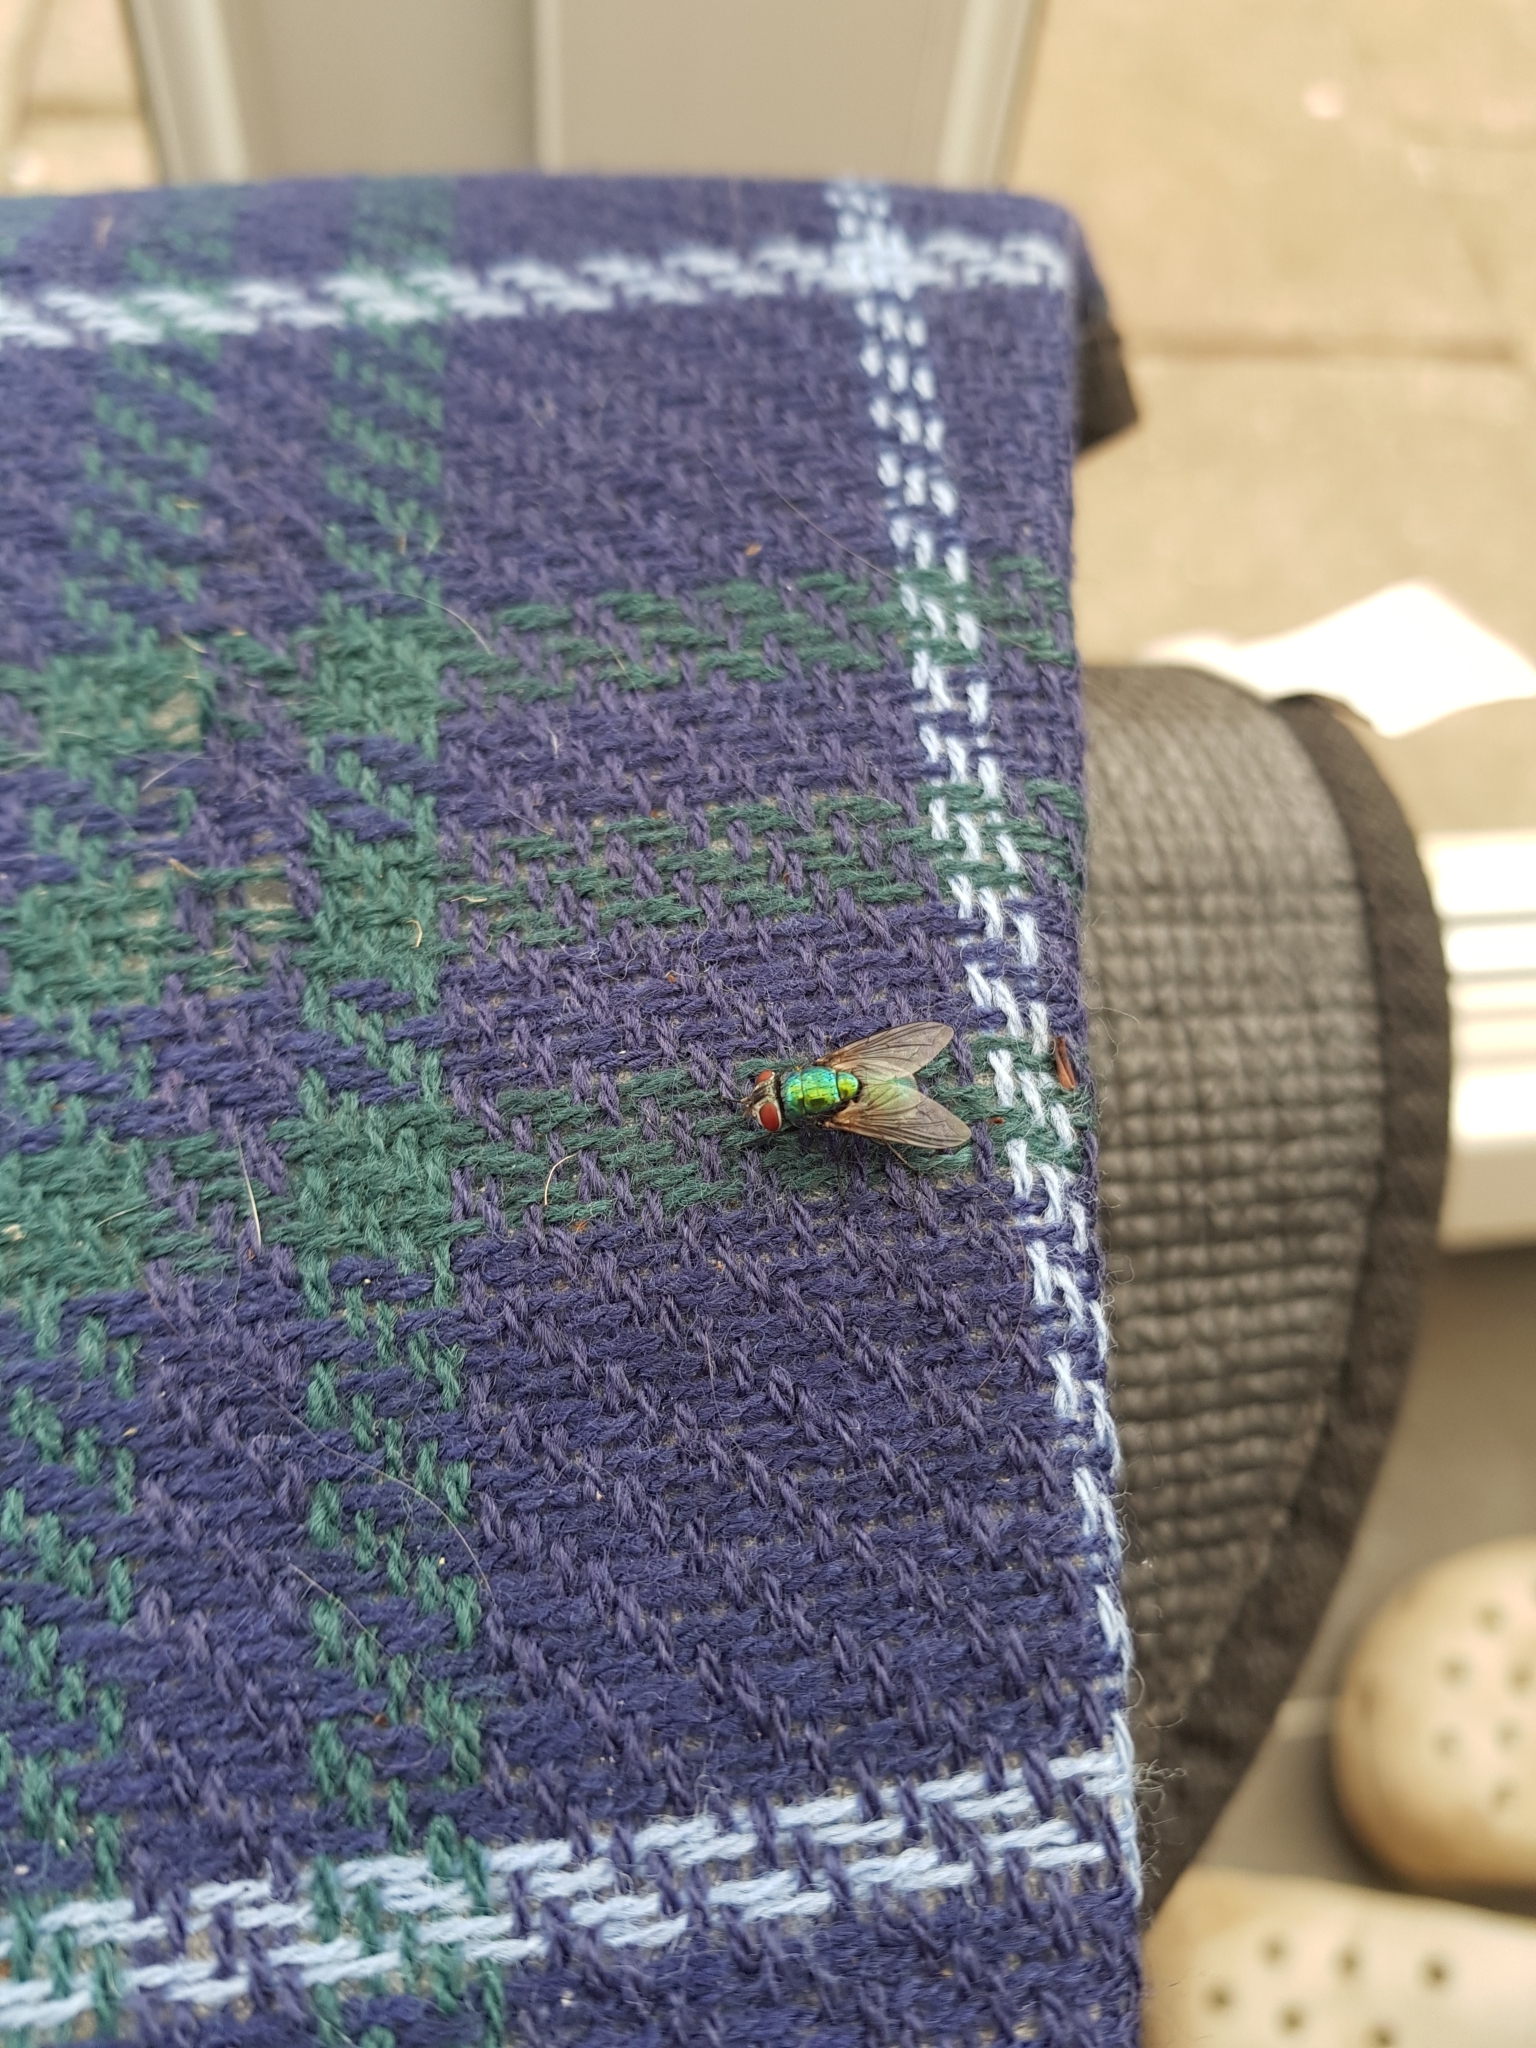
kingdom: Animalia
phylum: Arthropoda
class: Insecta
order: Diptera
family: Calliphoridae
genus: Lucilia
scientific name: Lucilia
